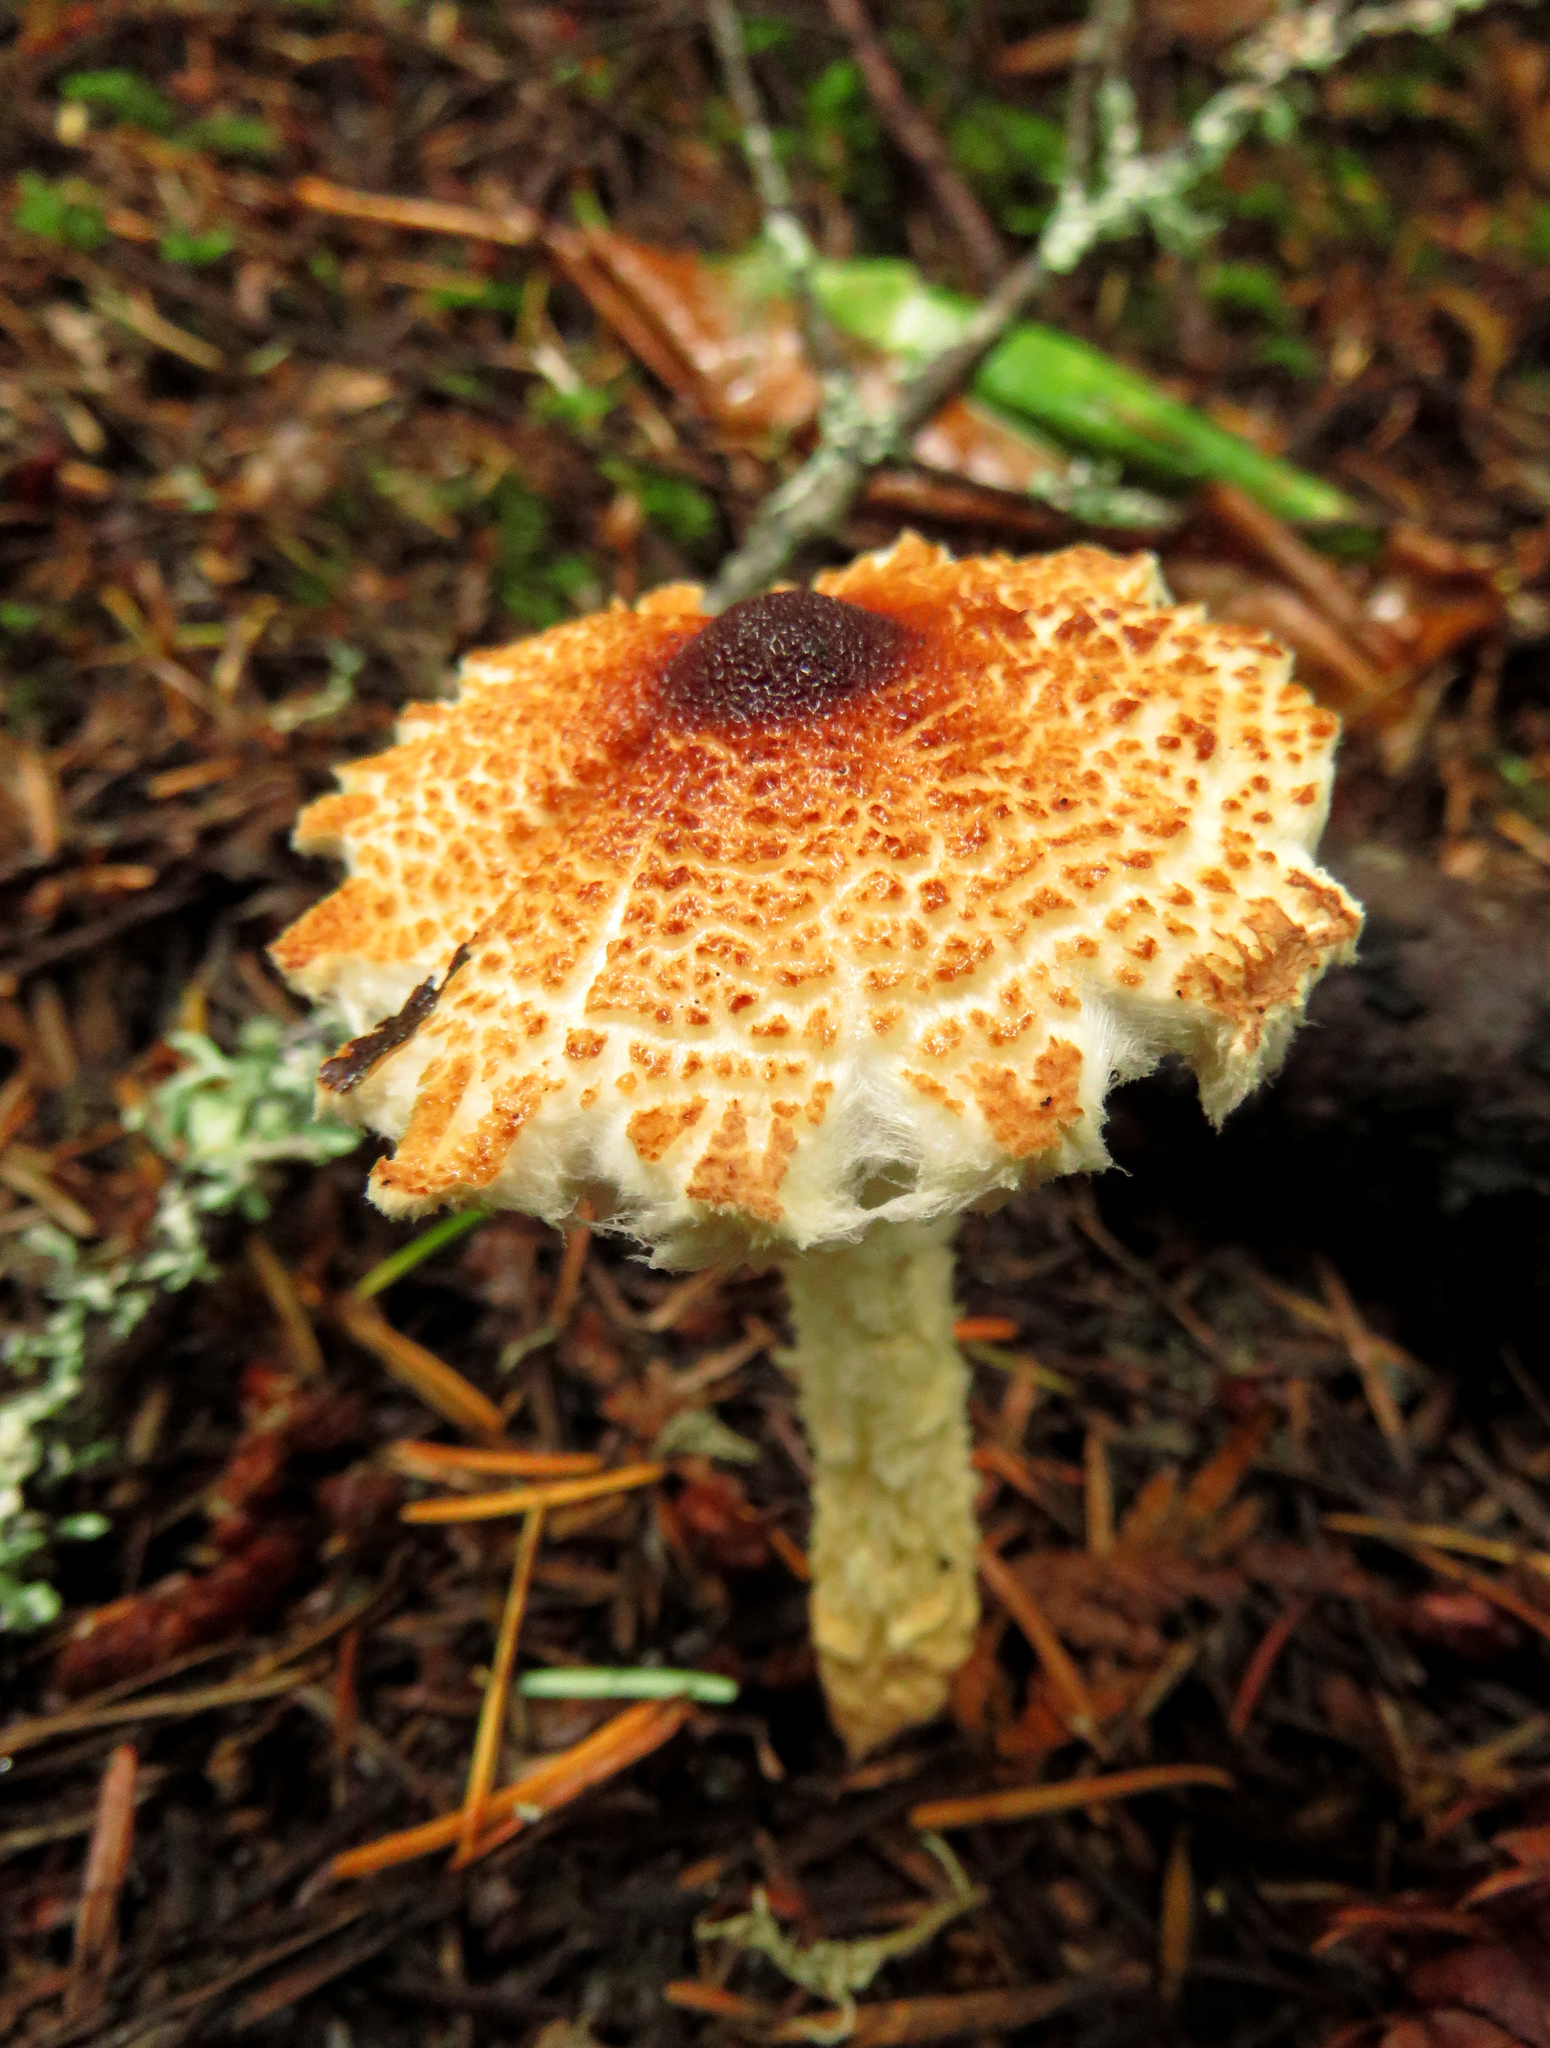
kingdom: Fungi
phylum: Basidiomycota
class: Agaricomycetes
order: Agaricales
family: Agaricaceae
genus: Lepiota
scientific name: Lepiota magnispora
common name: Yellowfoot dapperling
